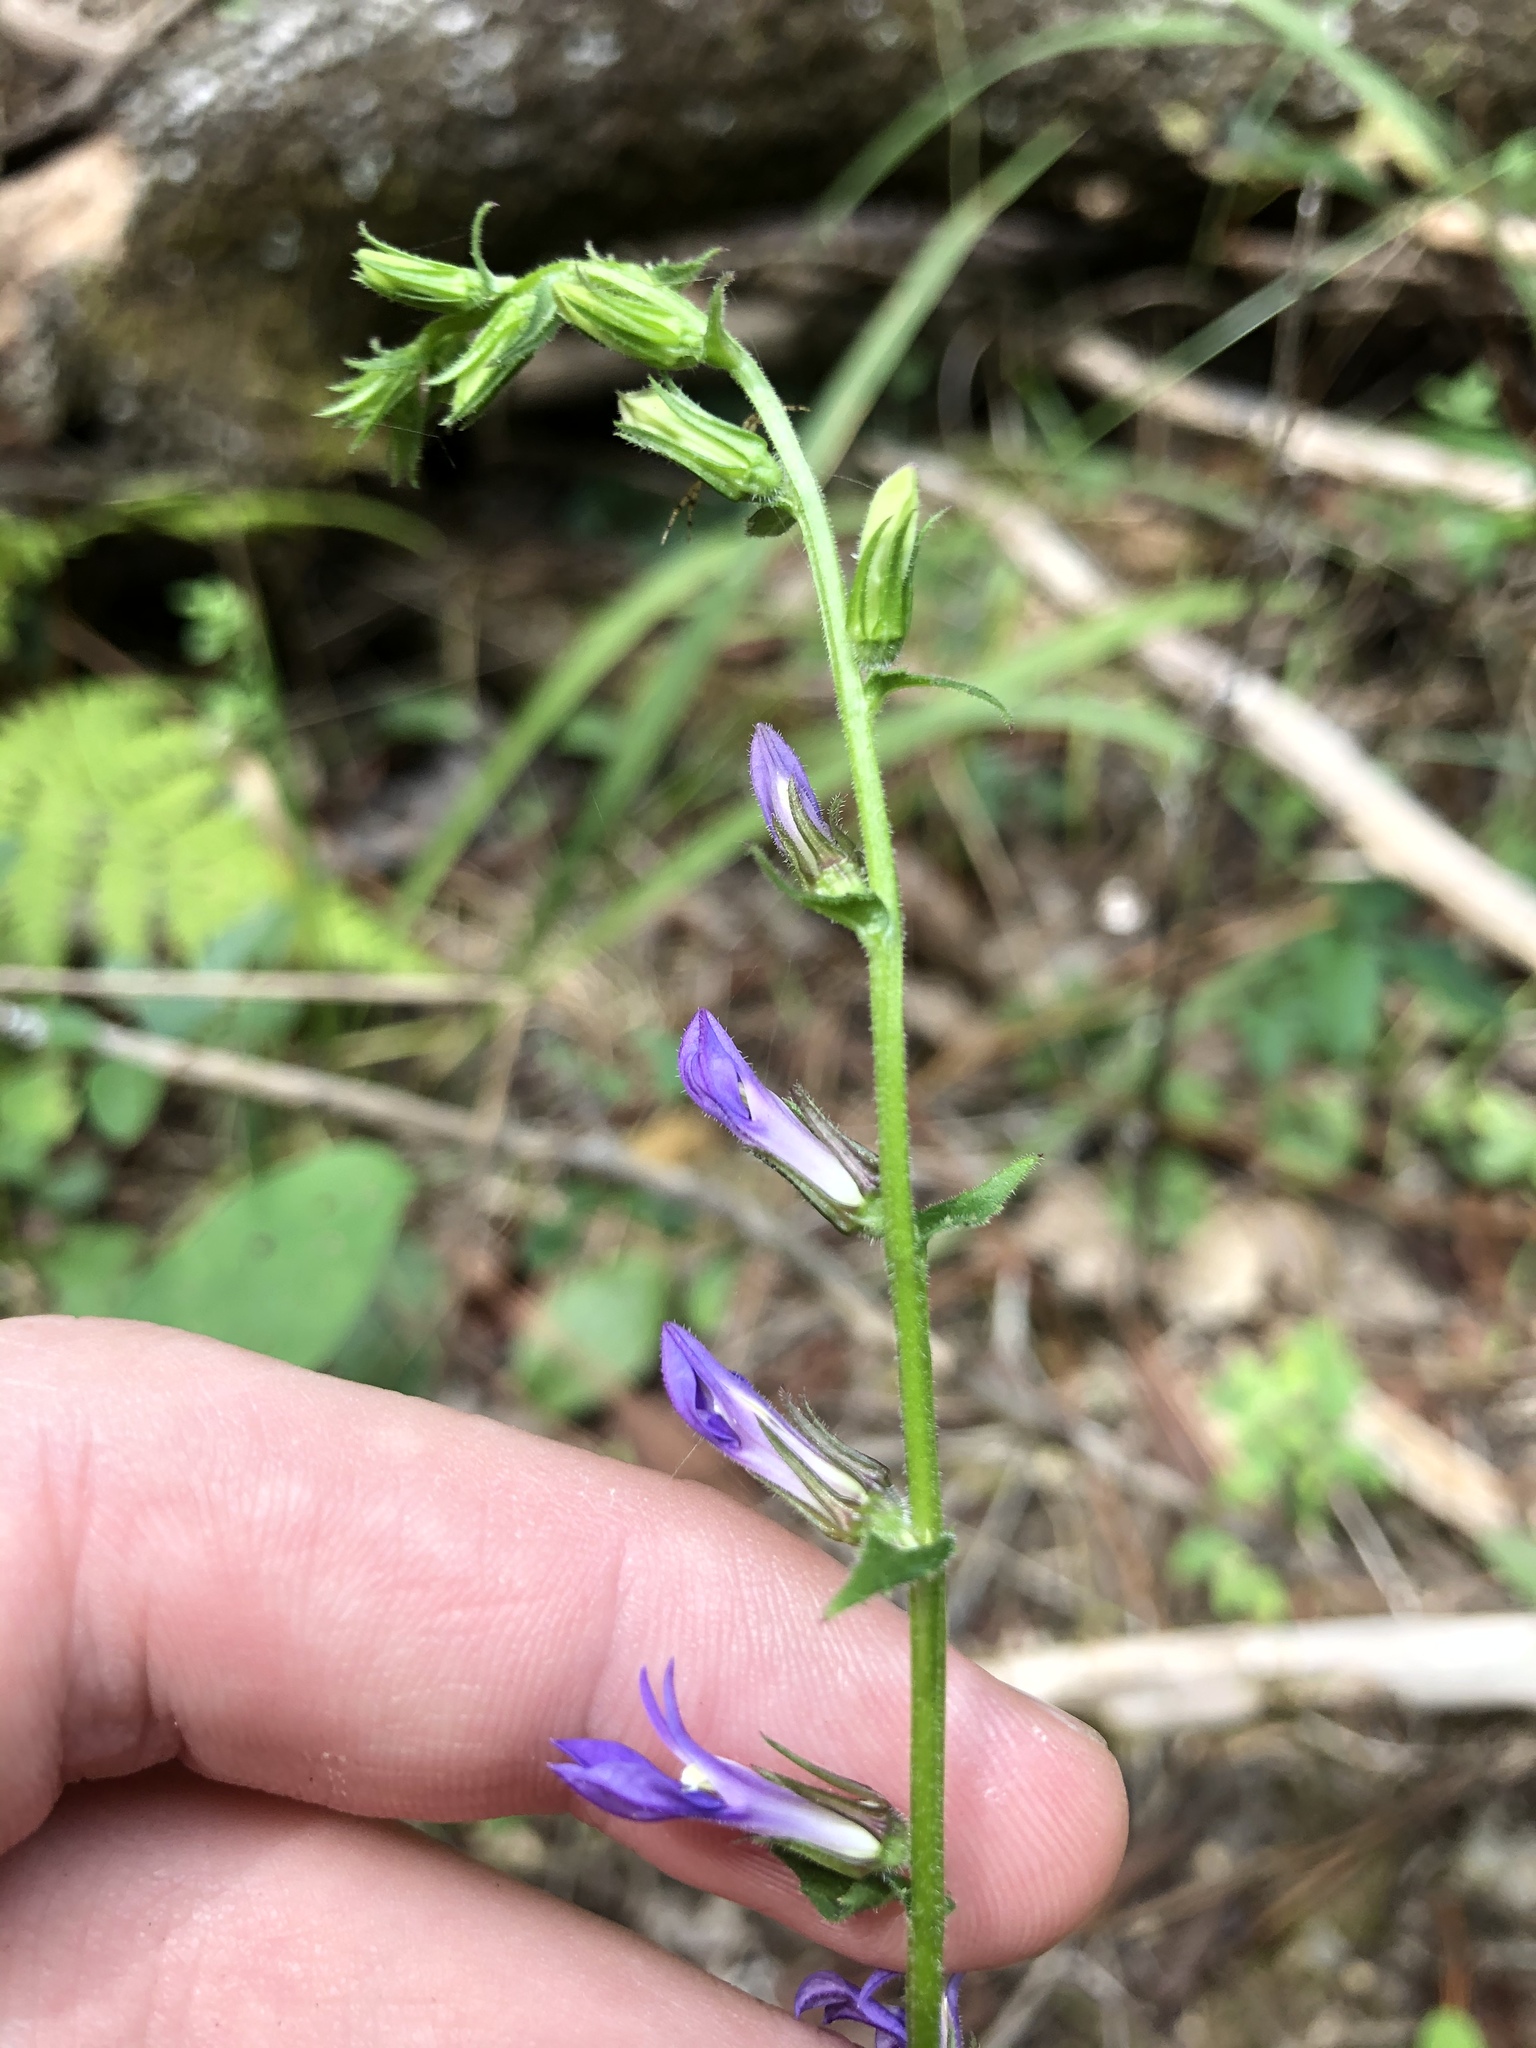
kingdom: Plantae
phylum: Tracheophyta
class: Magnoliopsida
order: Asterales
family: Campanulaceae
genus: Lobelia
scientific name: Lobelia puberula
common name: Purple dewdrop
